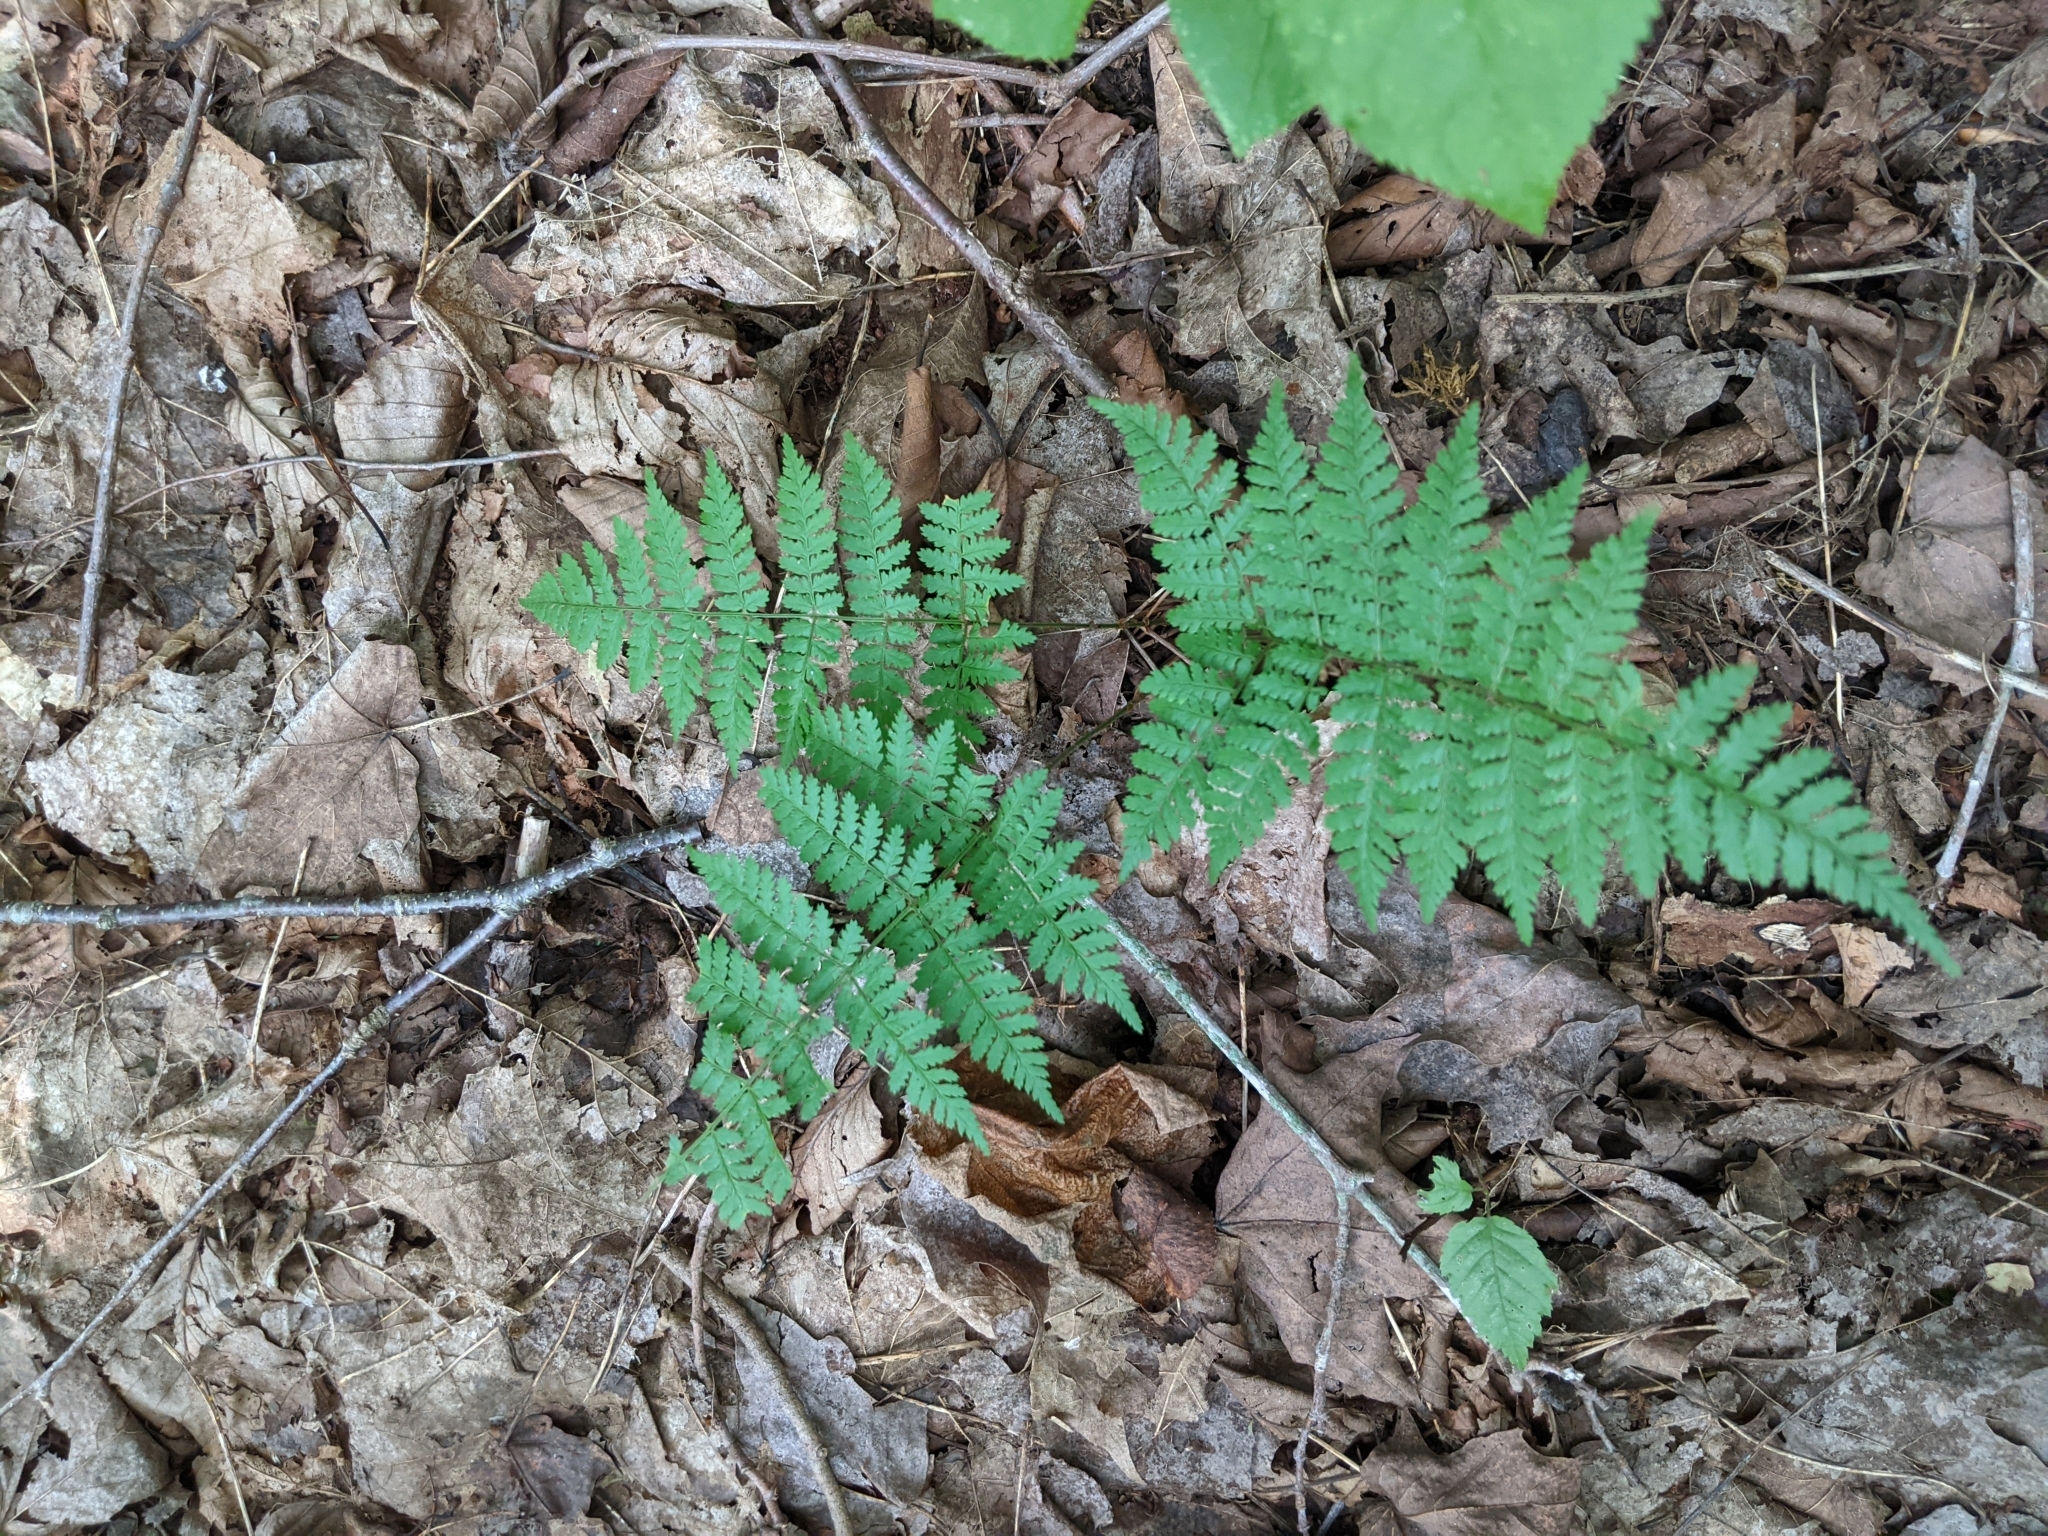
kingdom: Plantae
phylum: Tracheophyta
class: Polypodiopsida
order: Polypodiales
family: Dryopteridaceae
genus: Dryopteris
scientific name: Dryopteris intermedia
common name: Evergreen wood fern
